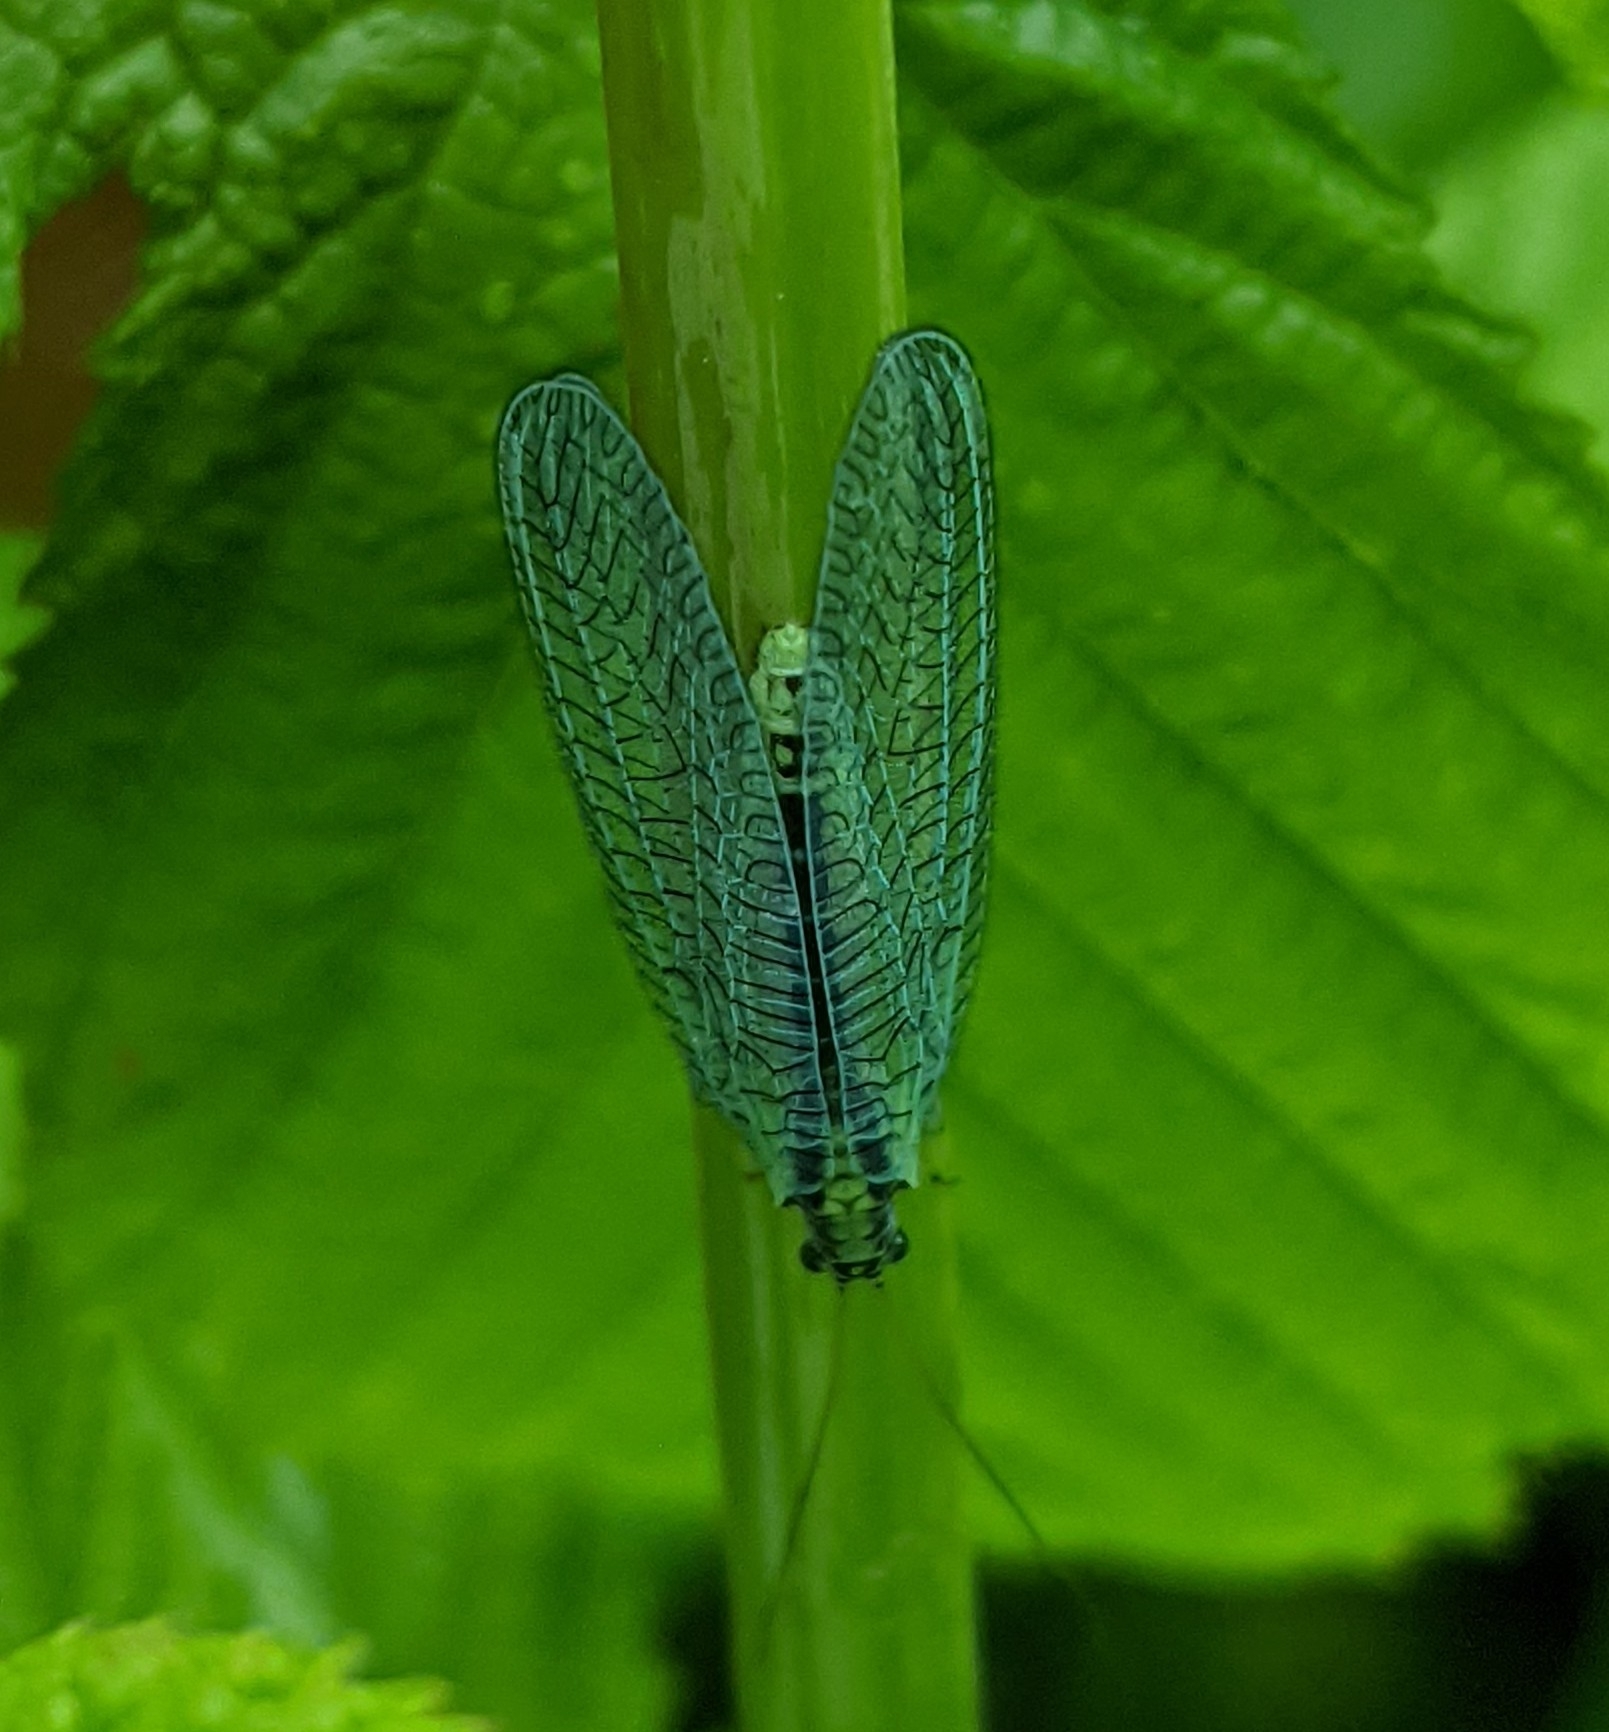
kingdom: Animalia
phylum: Arthropoda
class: Insecta
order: Neuroptera
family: Chrysopidae
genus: Chrysopa
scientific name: Chrysopa perla
